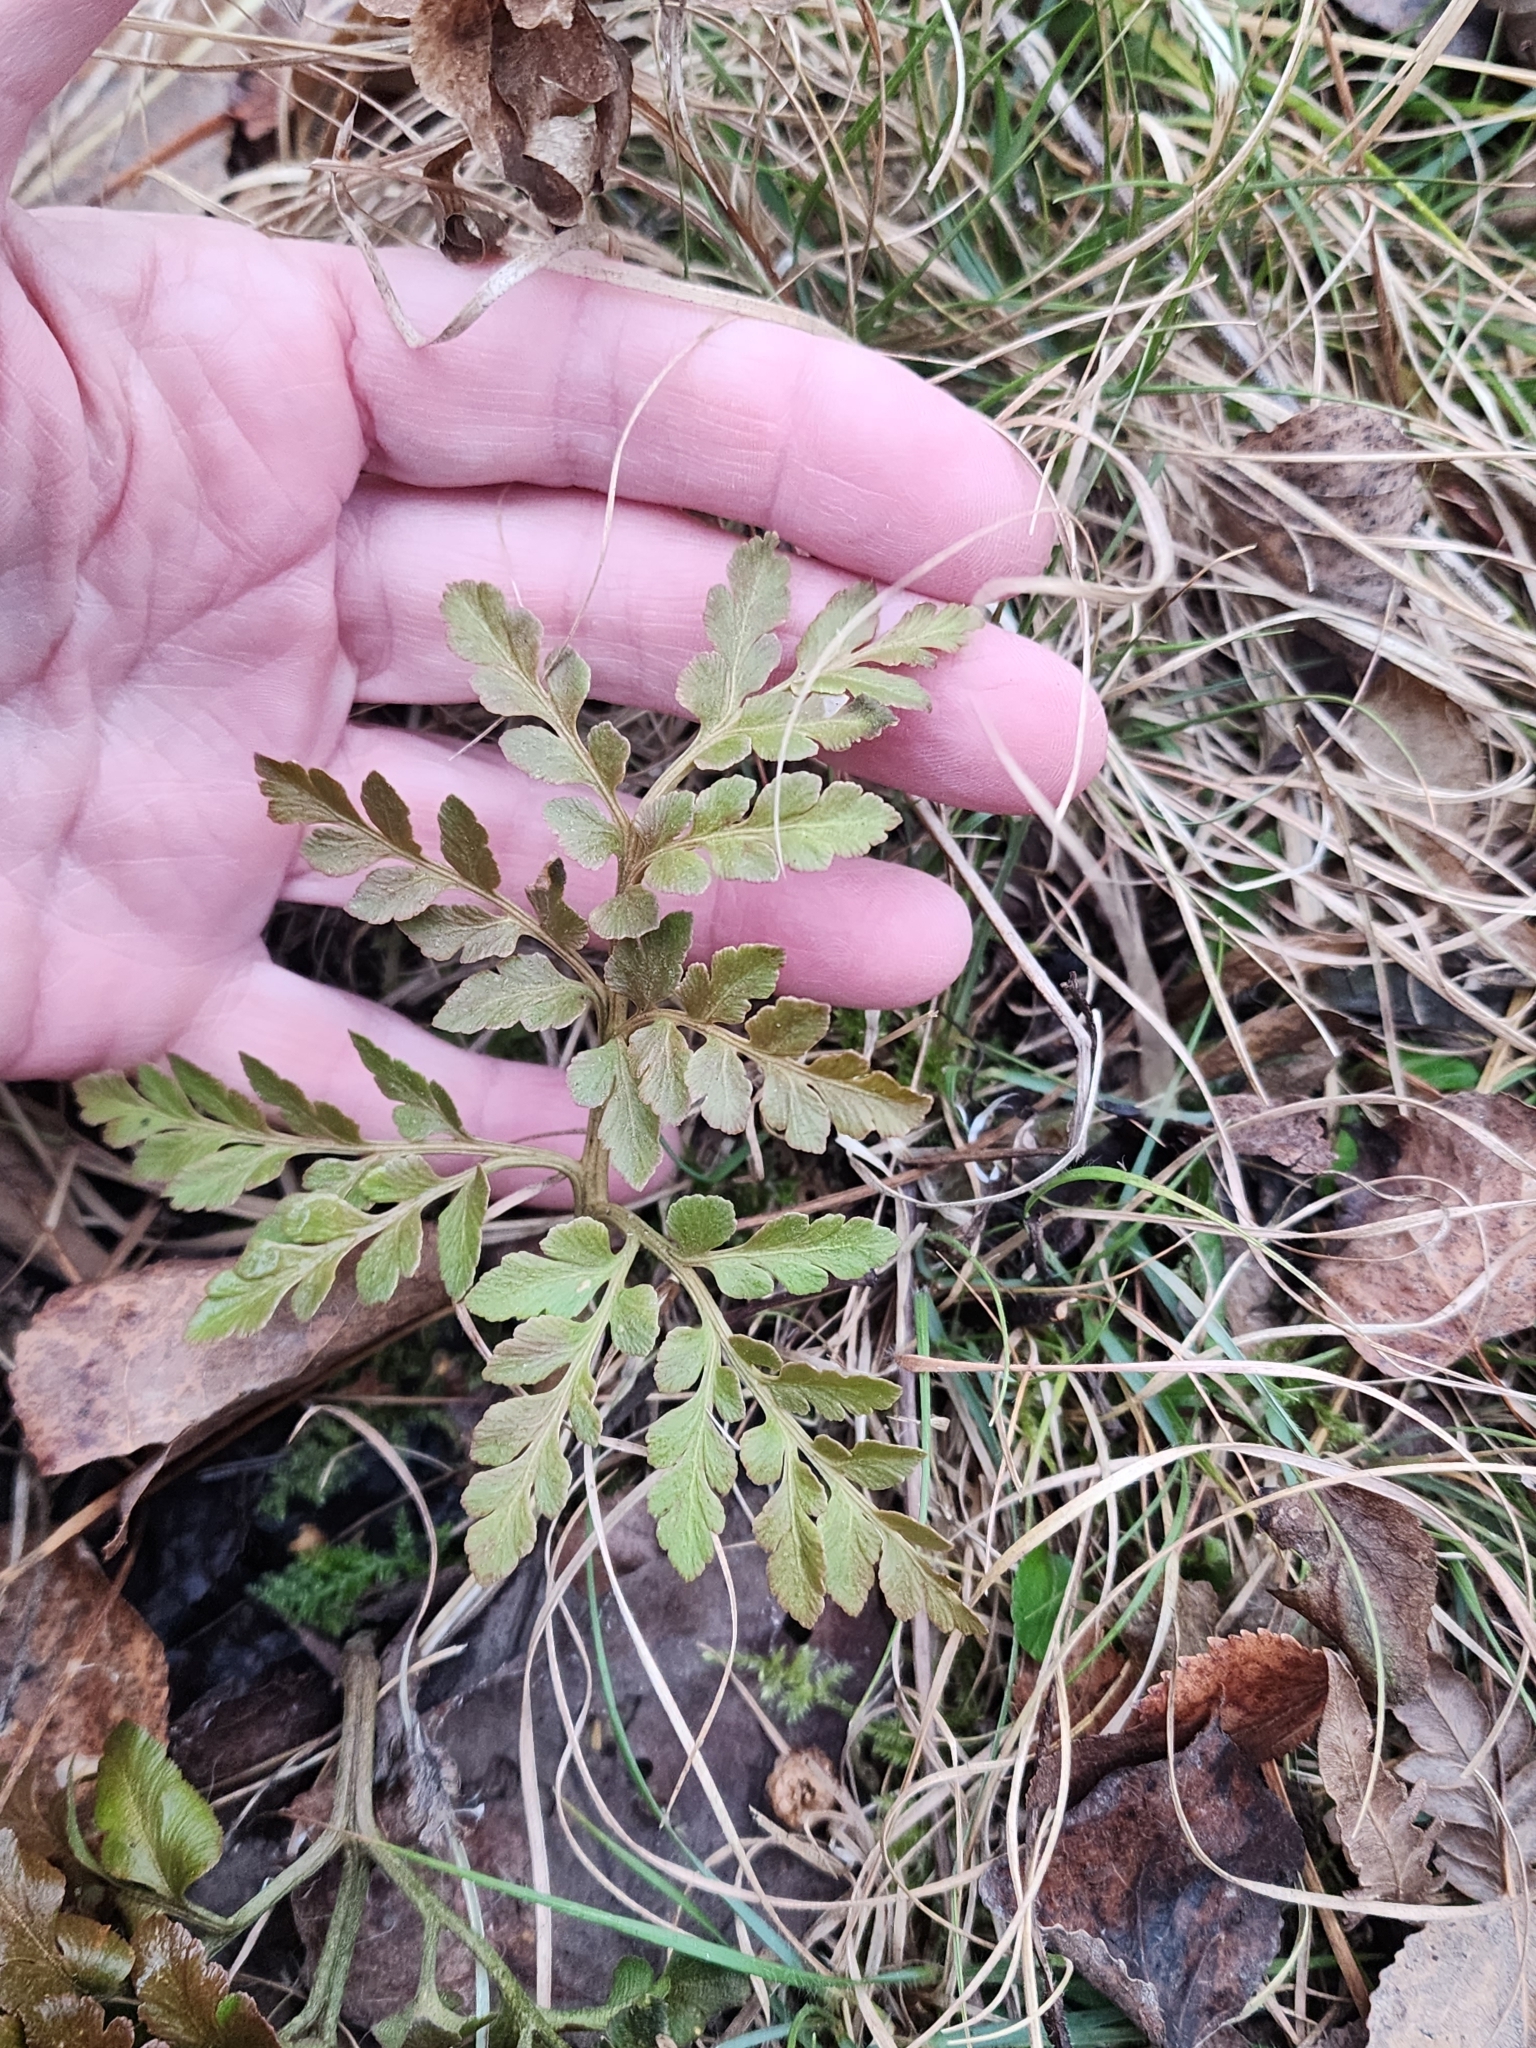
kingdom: Plantae
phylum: Tracheophyta
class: Polypodiopsida
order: Ophioglossales
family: Ophioglossaceae
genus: Sceptridium
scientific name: Sceptridium multifidum
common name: Leathery grape fern
